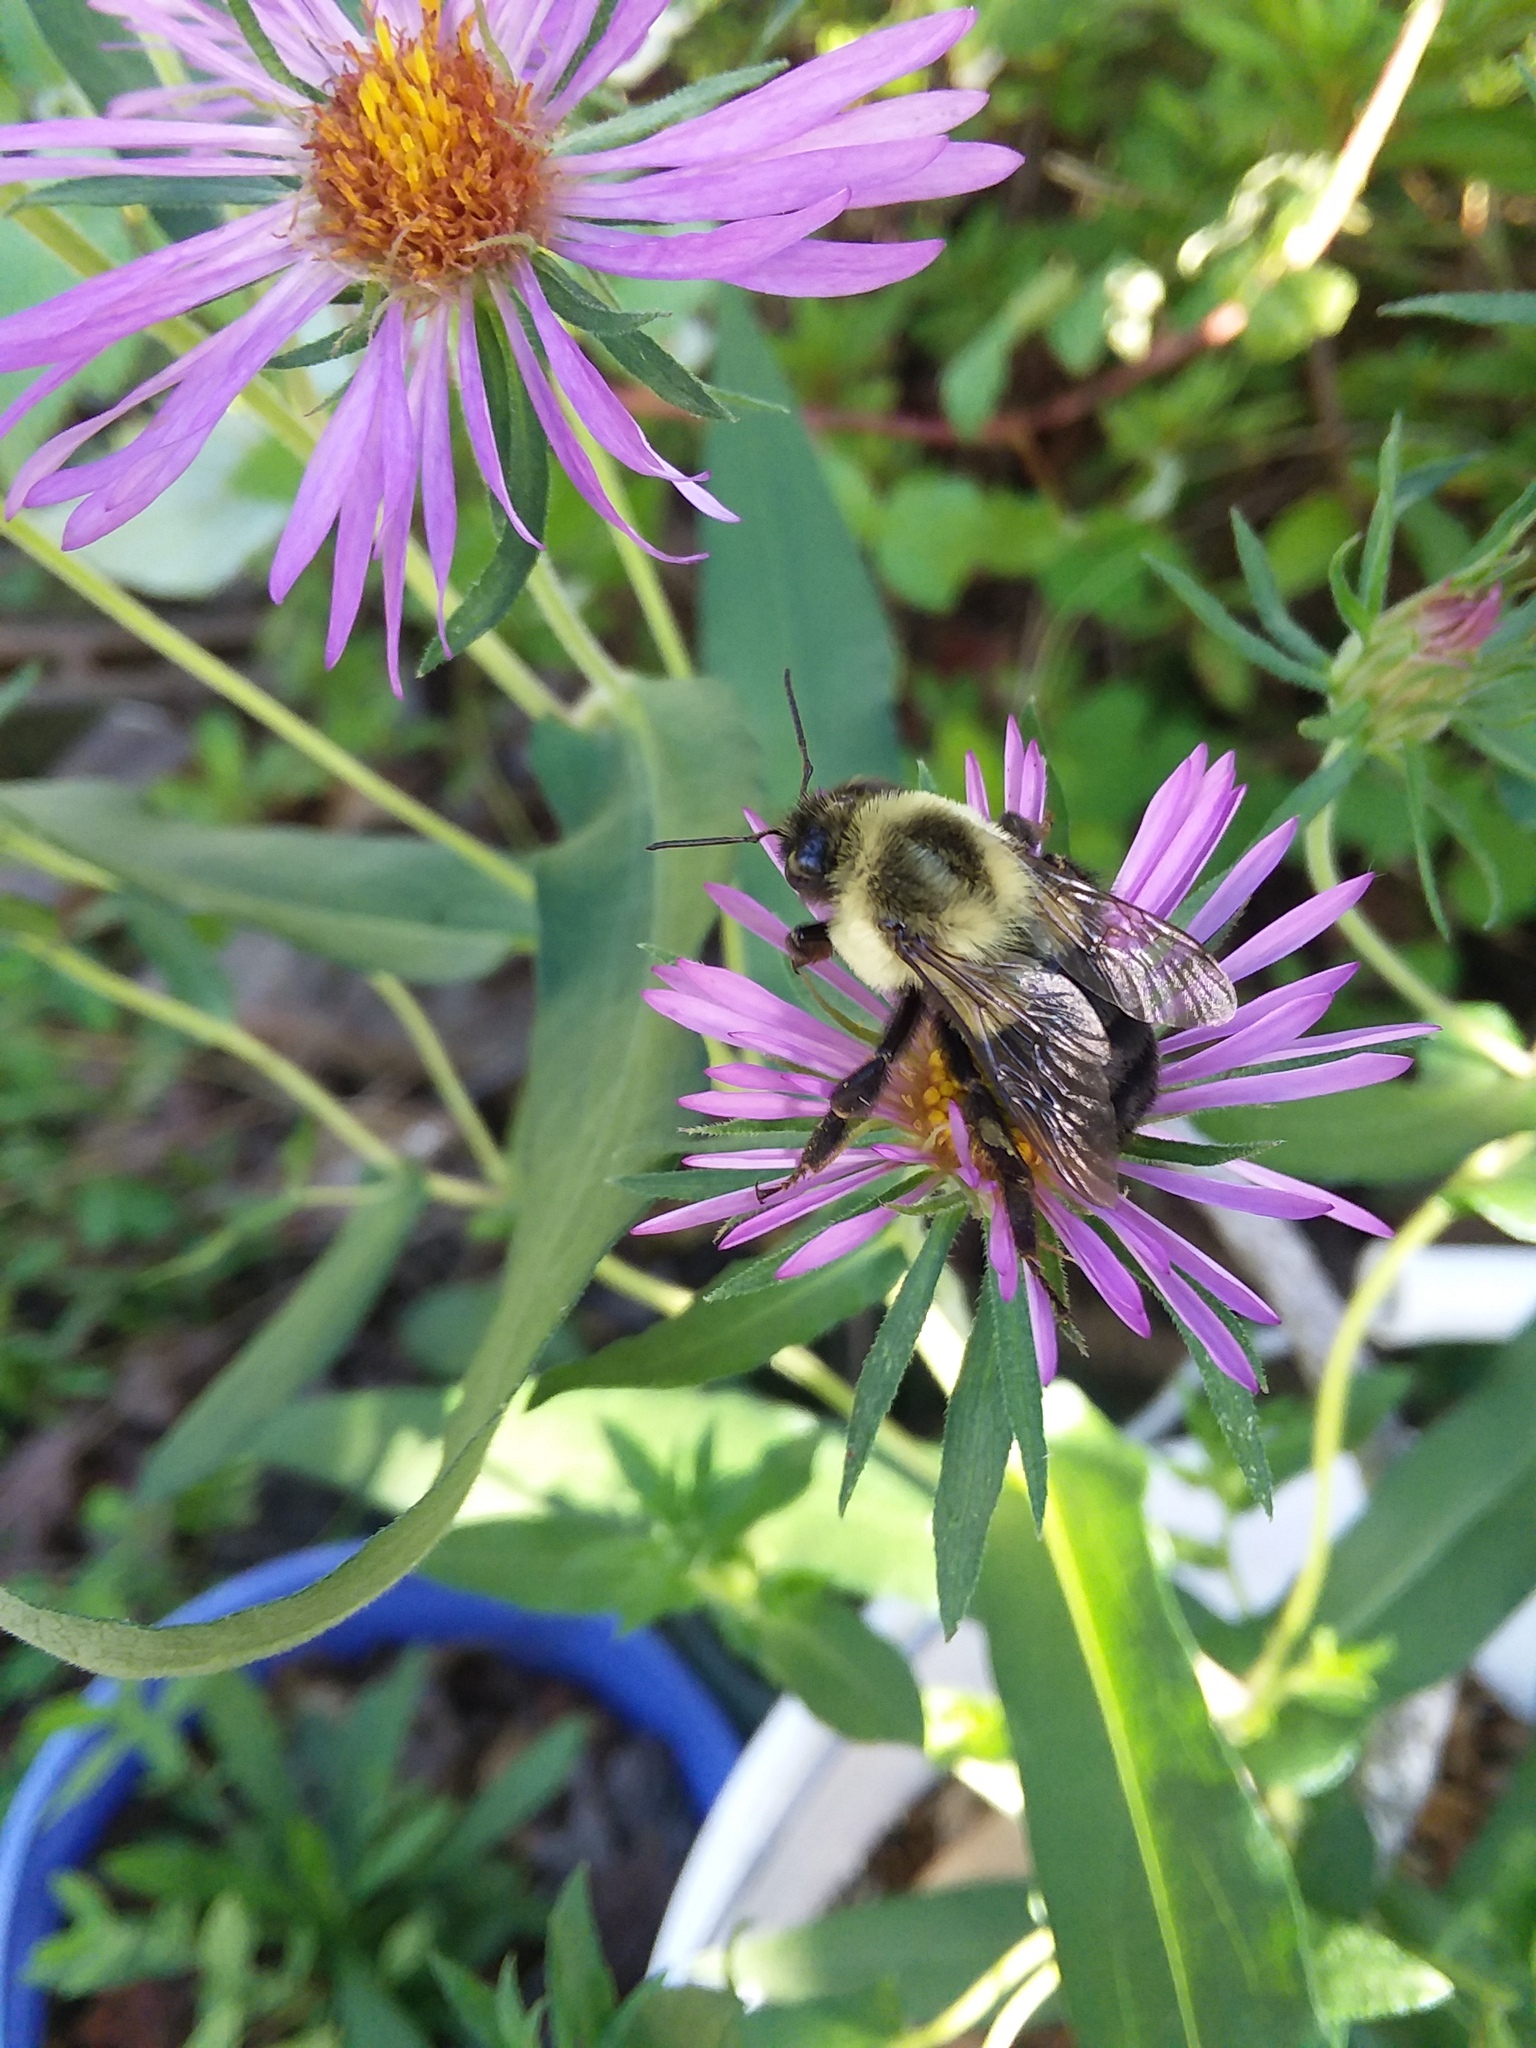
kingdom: Animalia
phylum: Arthropoda
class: Insecta
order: Hymenoptera
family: Apidae
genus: Bombus
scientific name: Bombus impatiens
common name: Common eastern bumble bee
